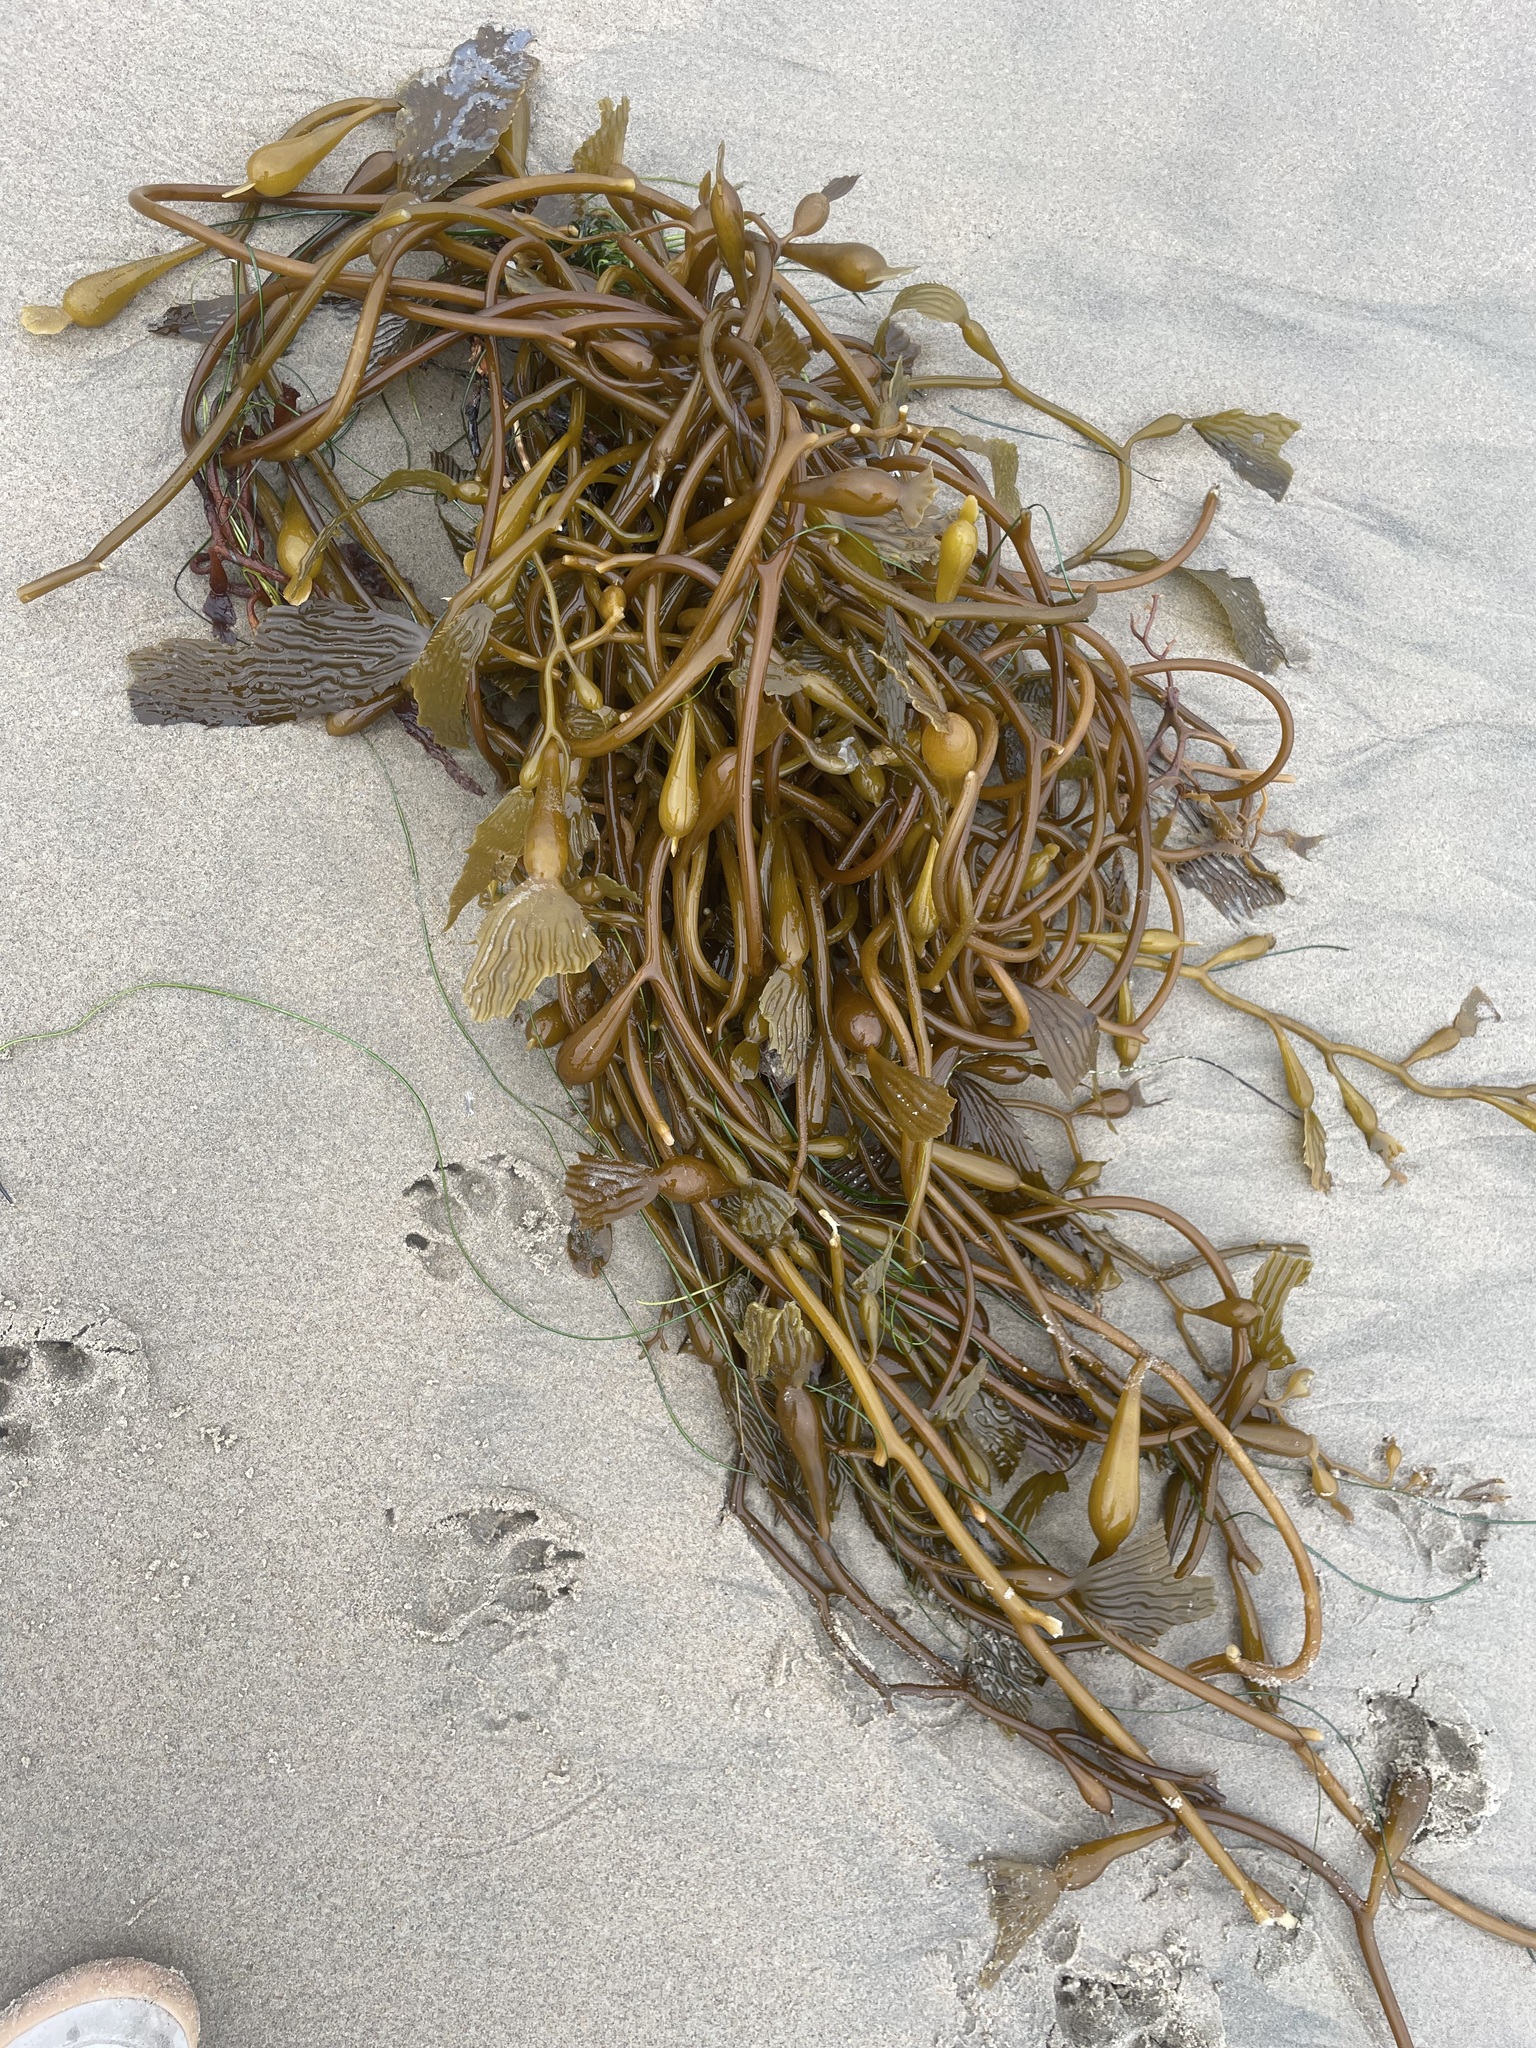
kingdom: Chromista
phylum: Ochrophyta
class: Phaeophyceae
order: Laminariales
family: Laminariaceae
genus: Macrocystis
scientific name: Macrocystis pyrifera
